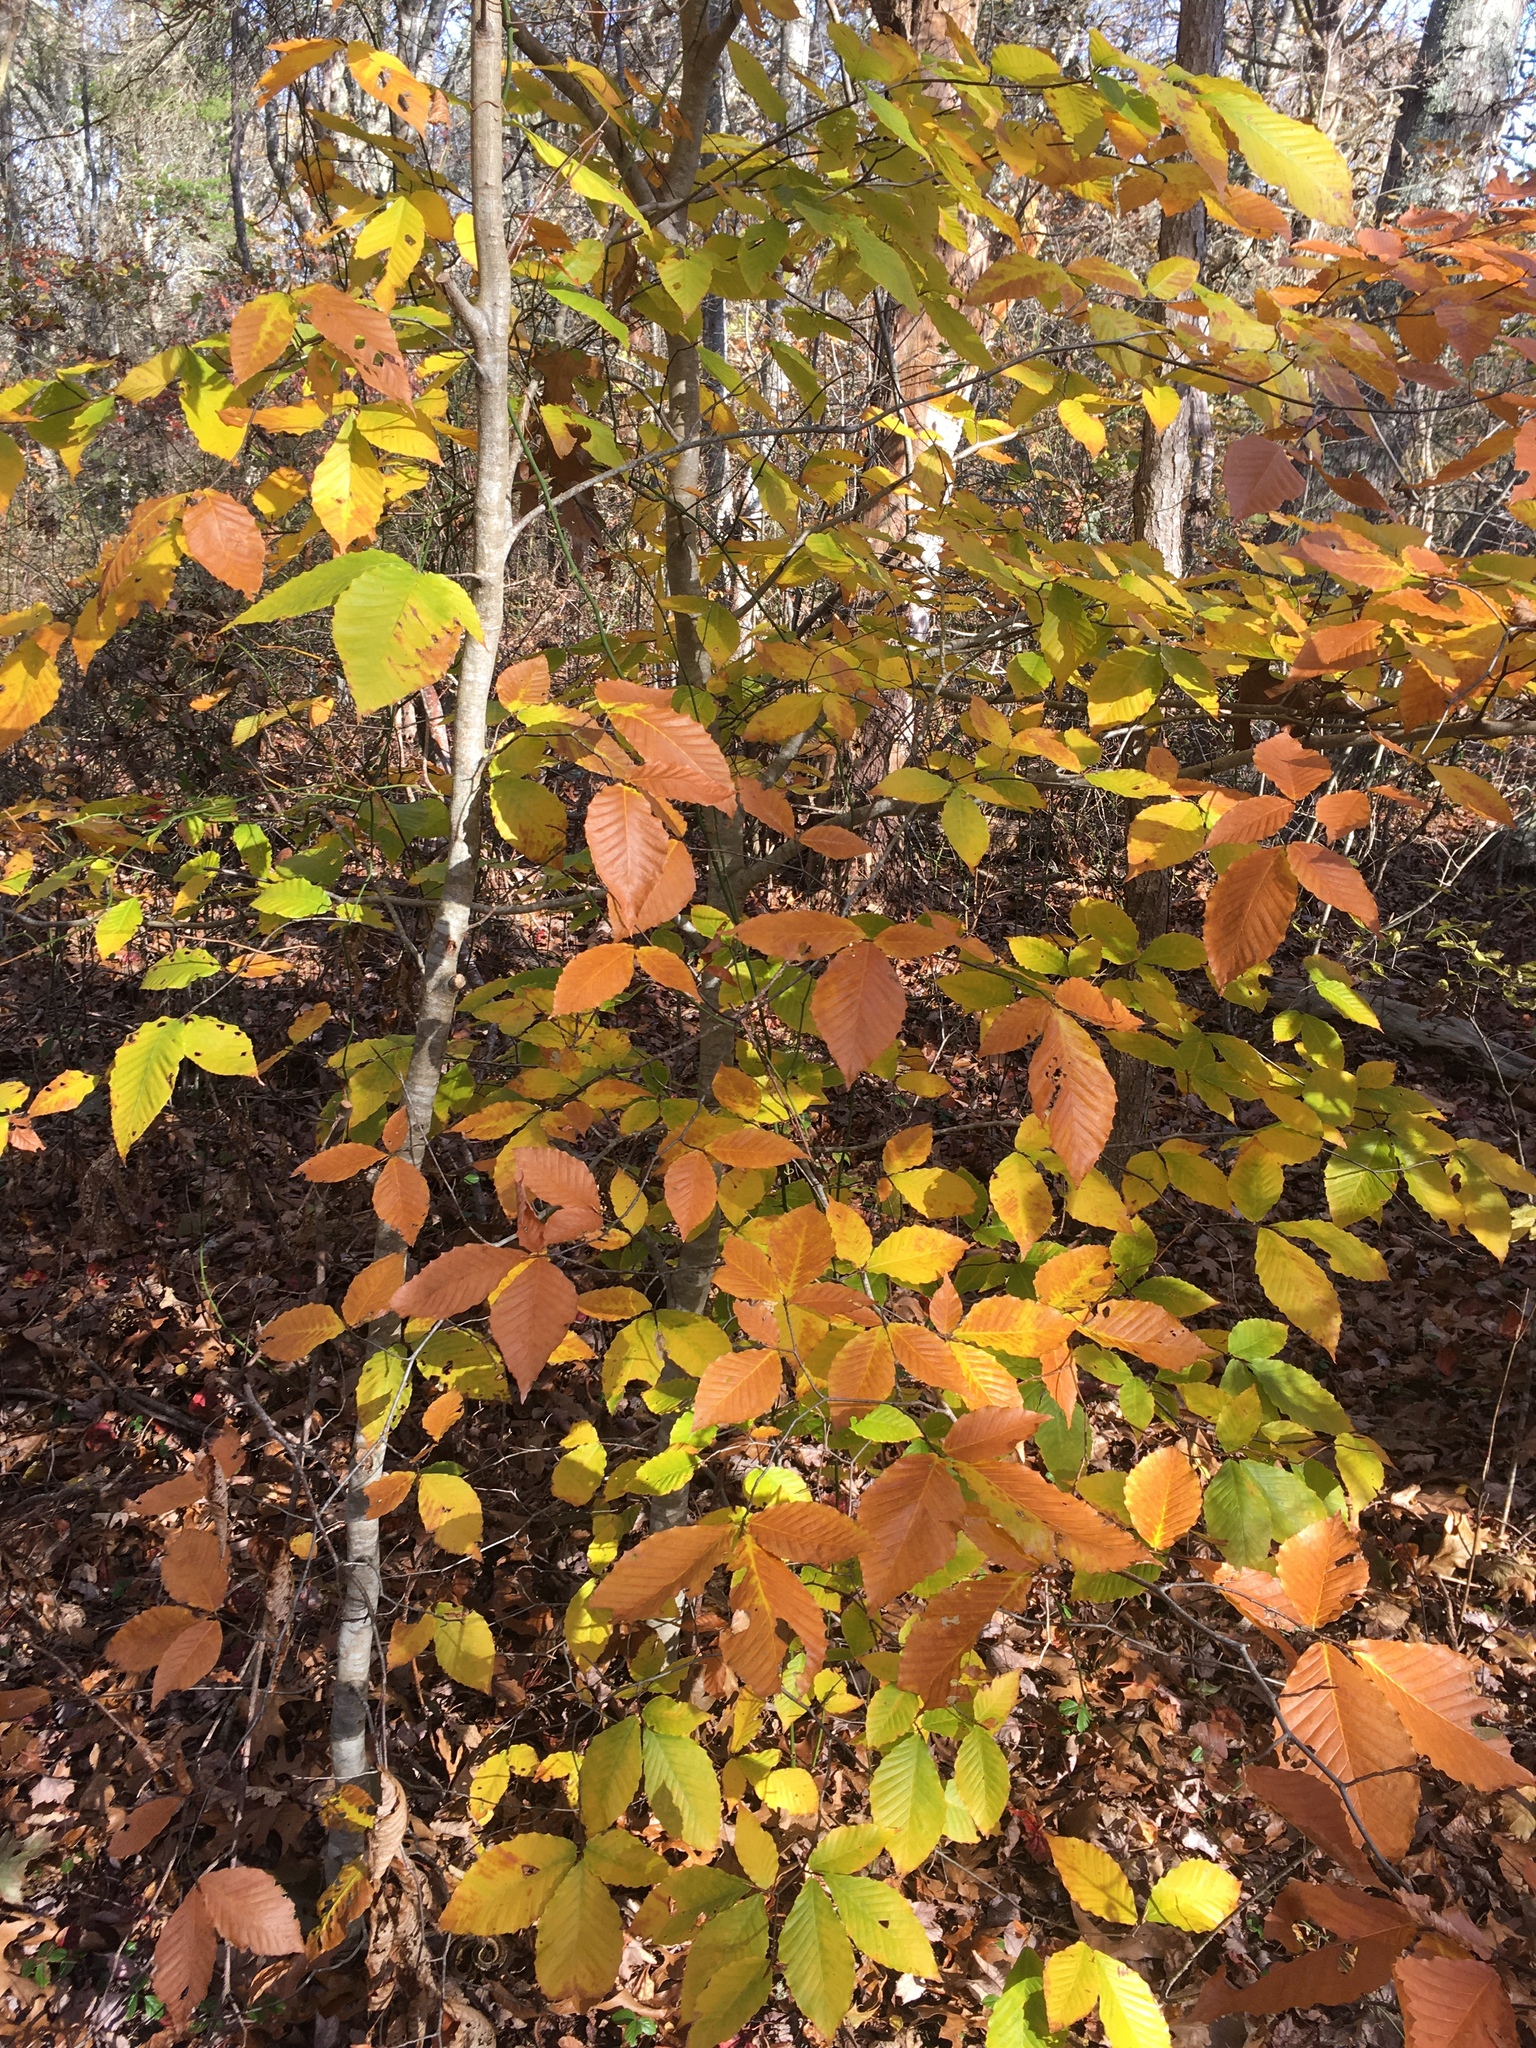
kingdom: Plantae
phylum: Tracheophyta
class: Magnoliopsida
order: Fagales
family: Fagaceae
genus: Fagus
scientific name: Fagus grandifolia
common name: American beech
